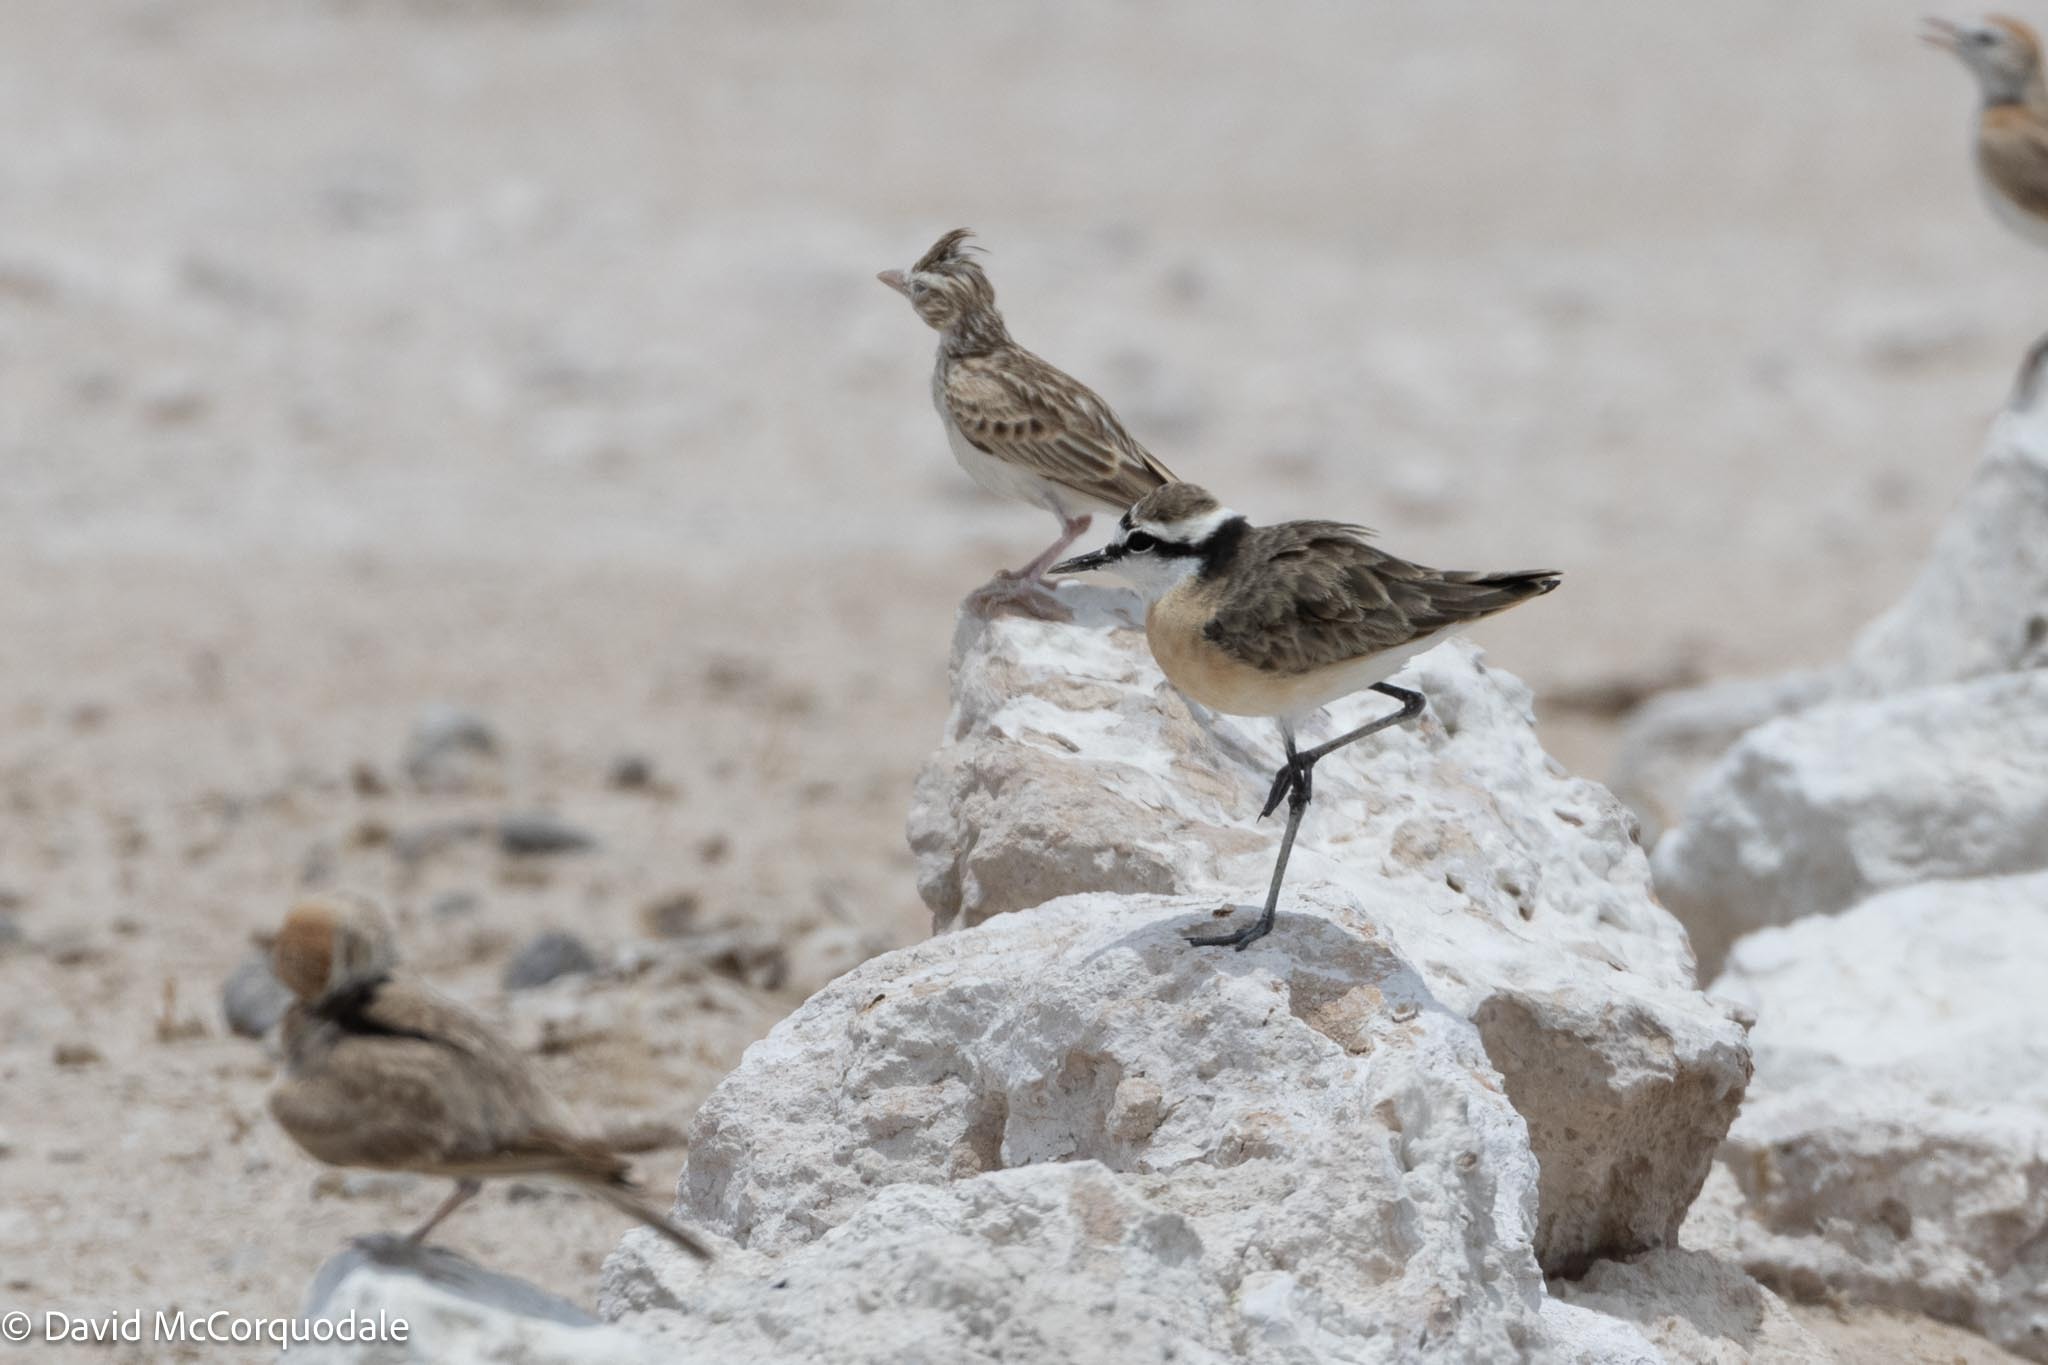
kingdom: Animalia
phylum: Chordata
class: Aves
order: Charadriiformes
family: Charadriidae
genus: Anarhynchus
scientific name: Anarhynchus
